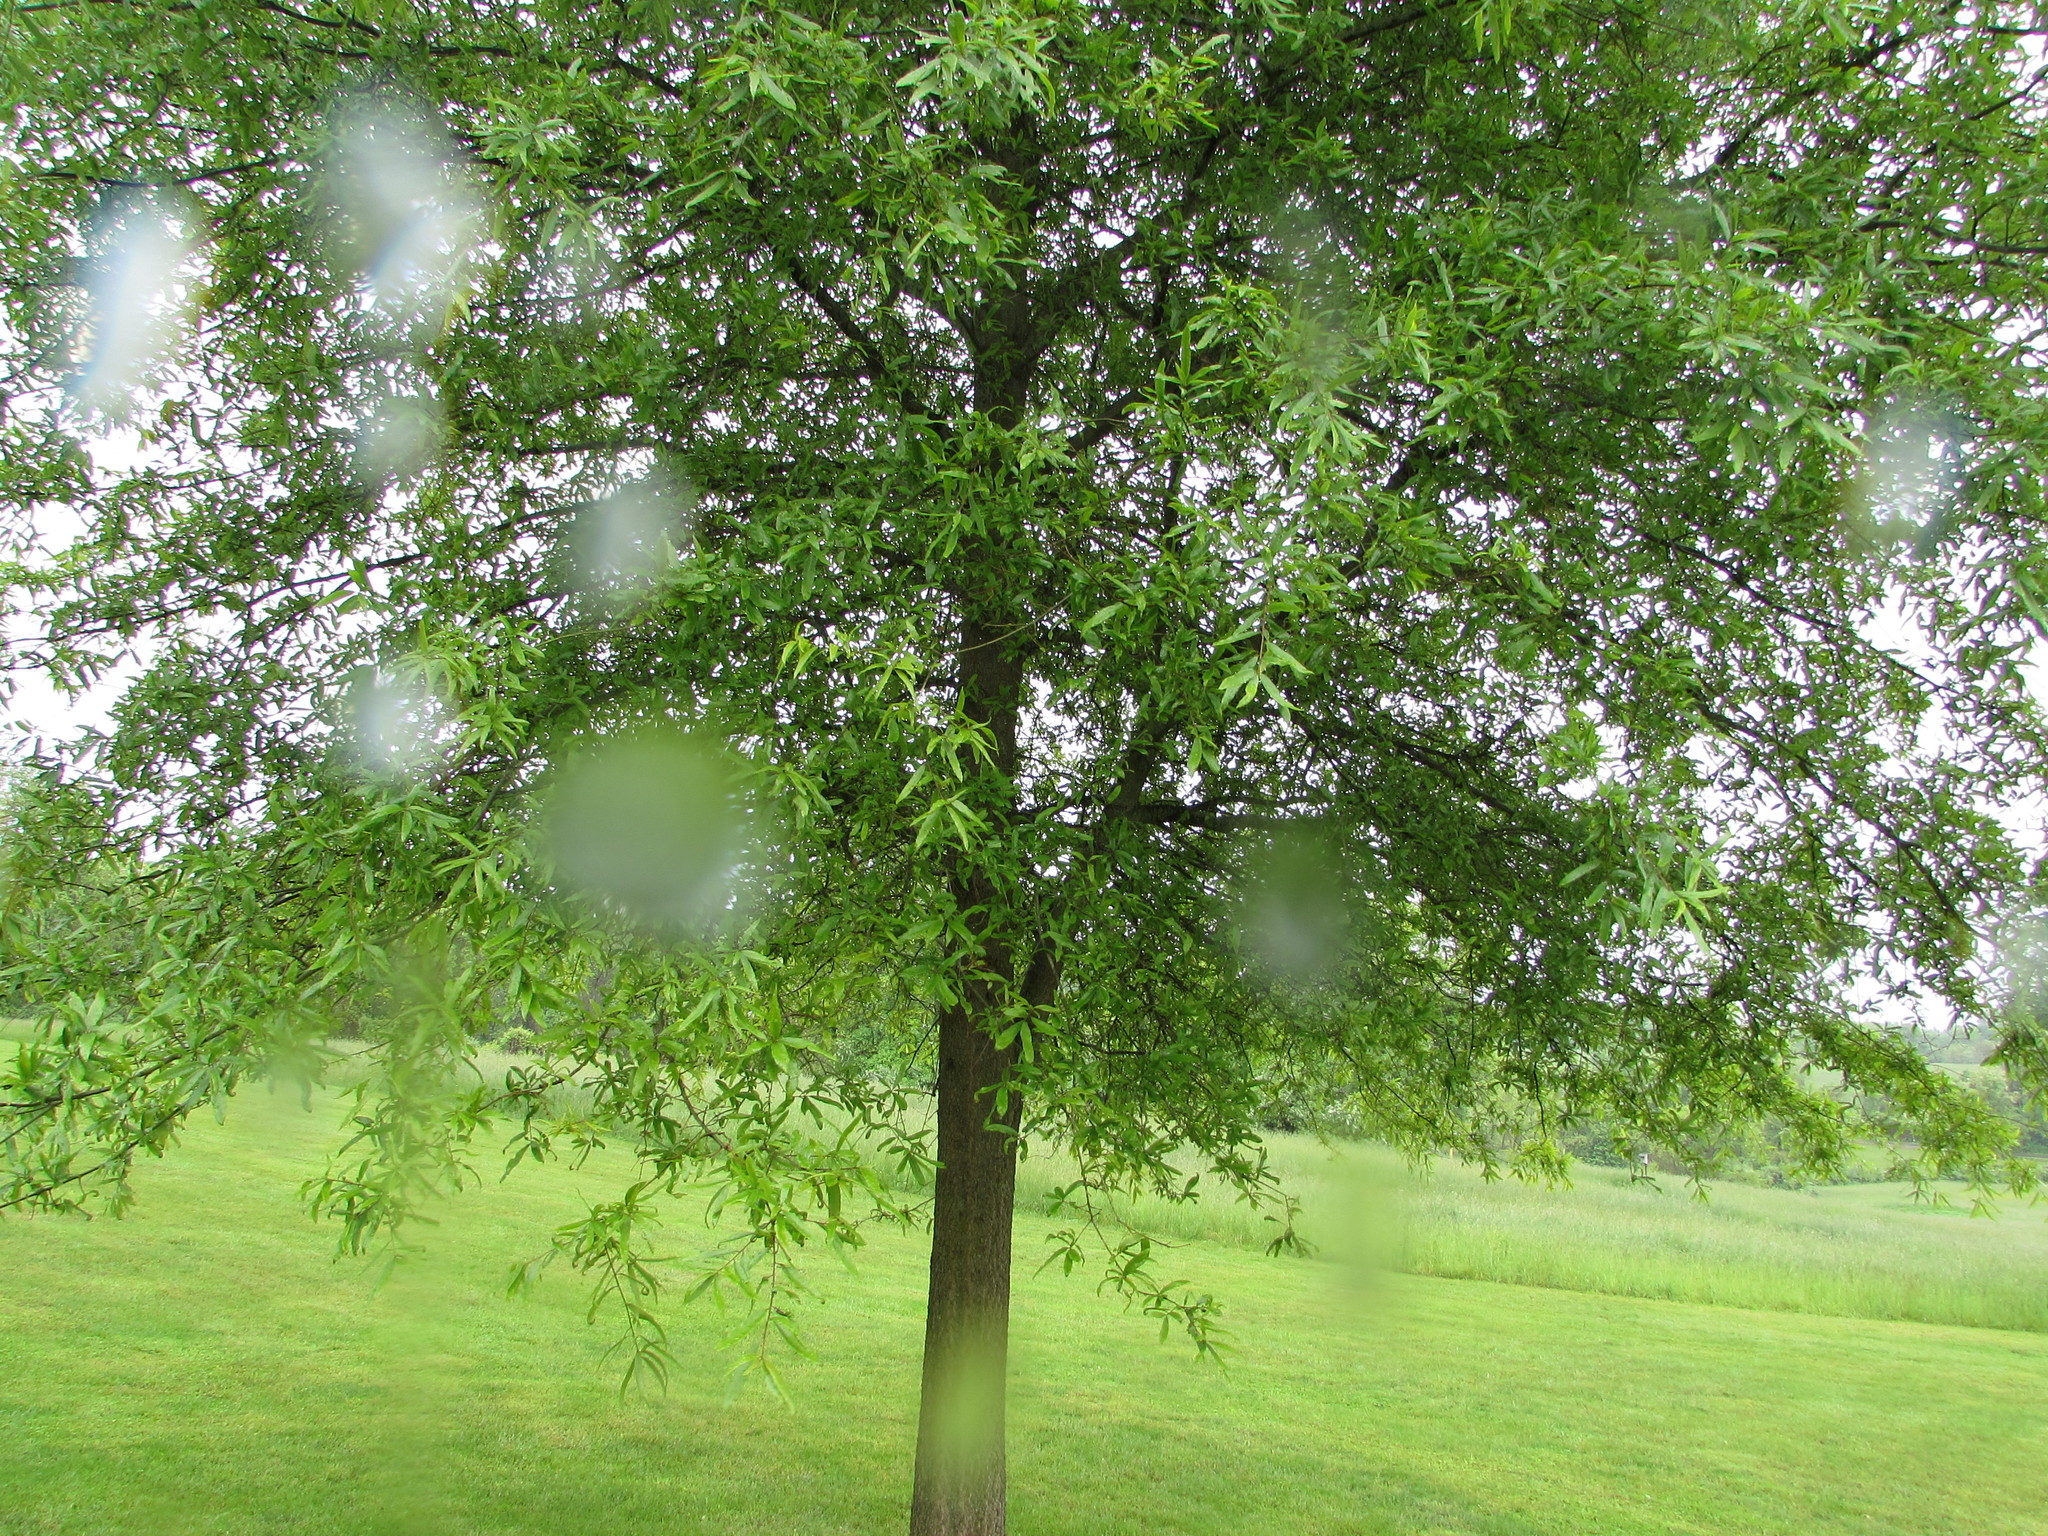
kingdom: Plantae
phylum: Tracheophyta
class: Magnoliopsida
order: Fagales
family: Fagaceae
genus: Quercus
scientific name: Quercus phellos
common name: Willow oak
